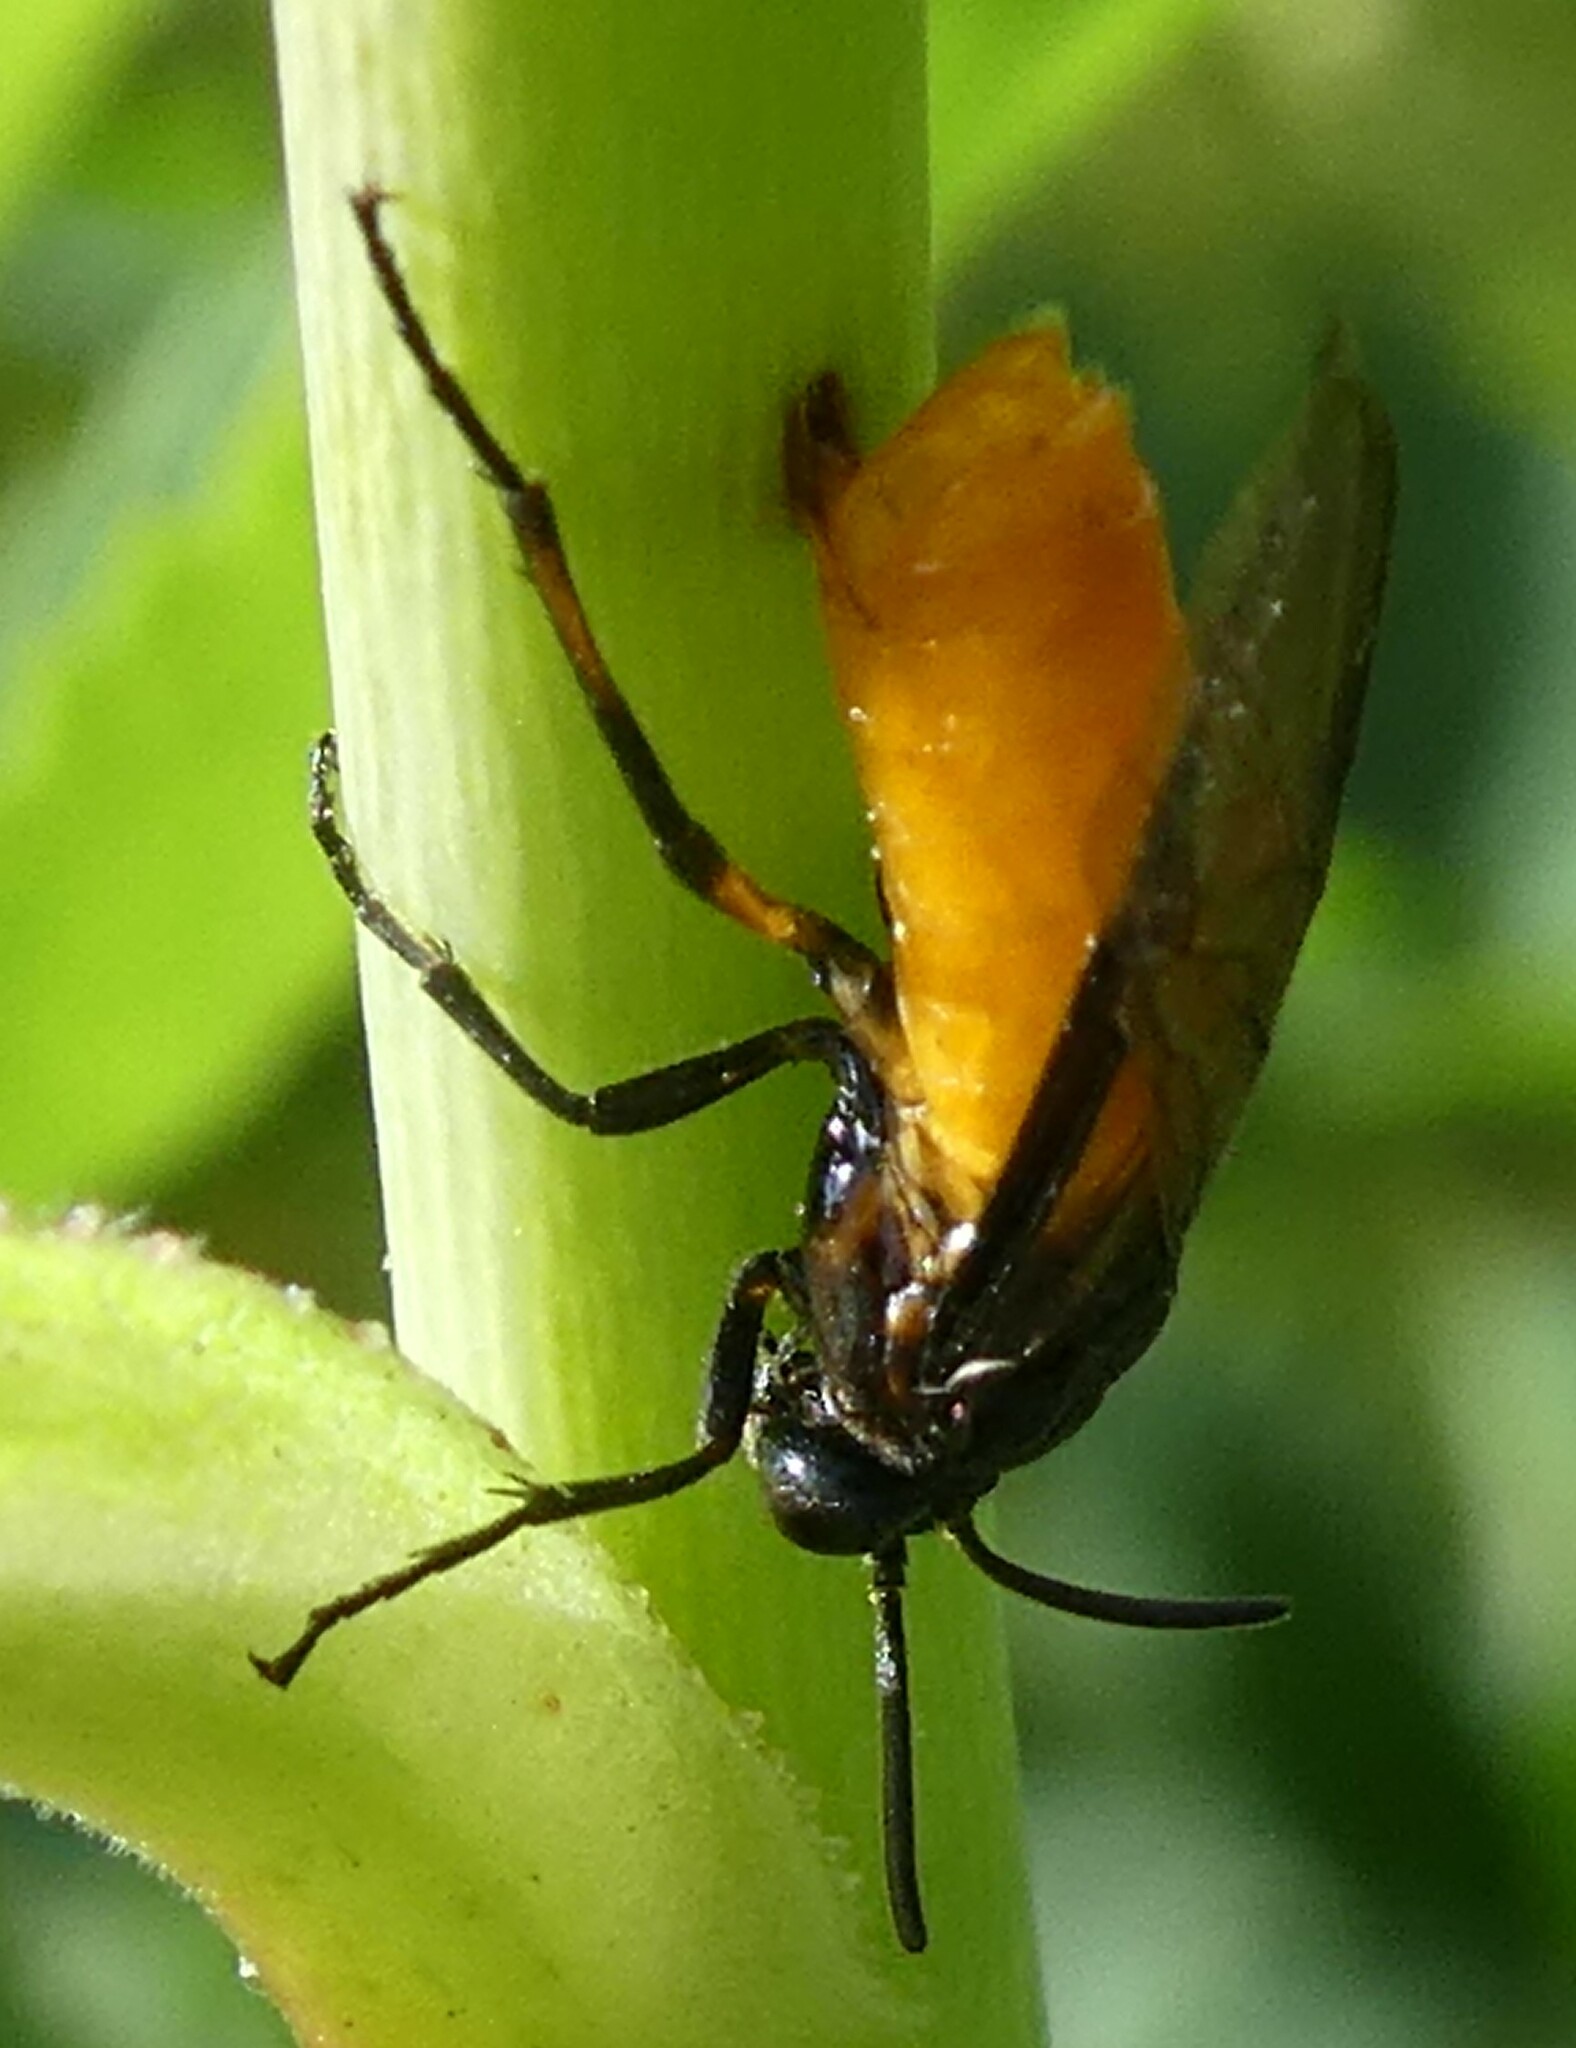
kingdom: Animalia
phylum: Arthropoda
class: Insecta
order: Hymenoptera
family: Argidae
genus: Arge
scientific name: Arge pagana
